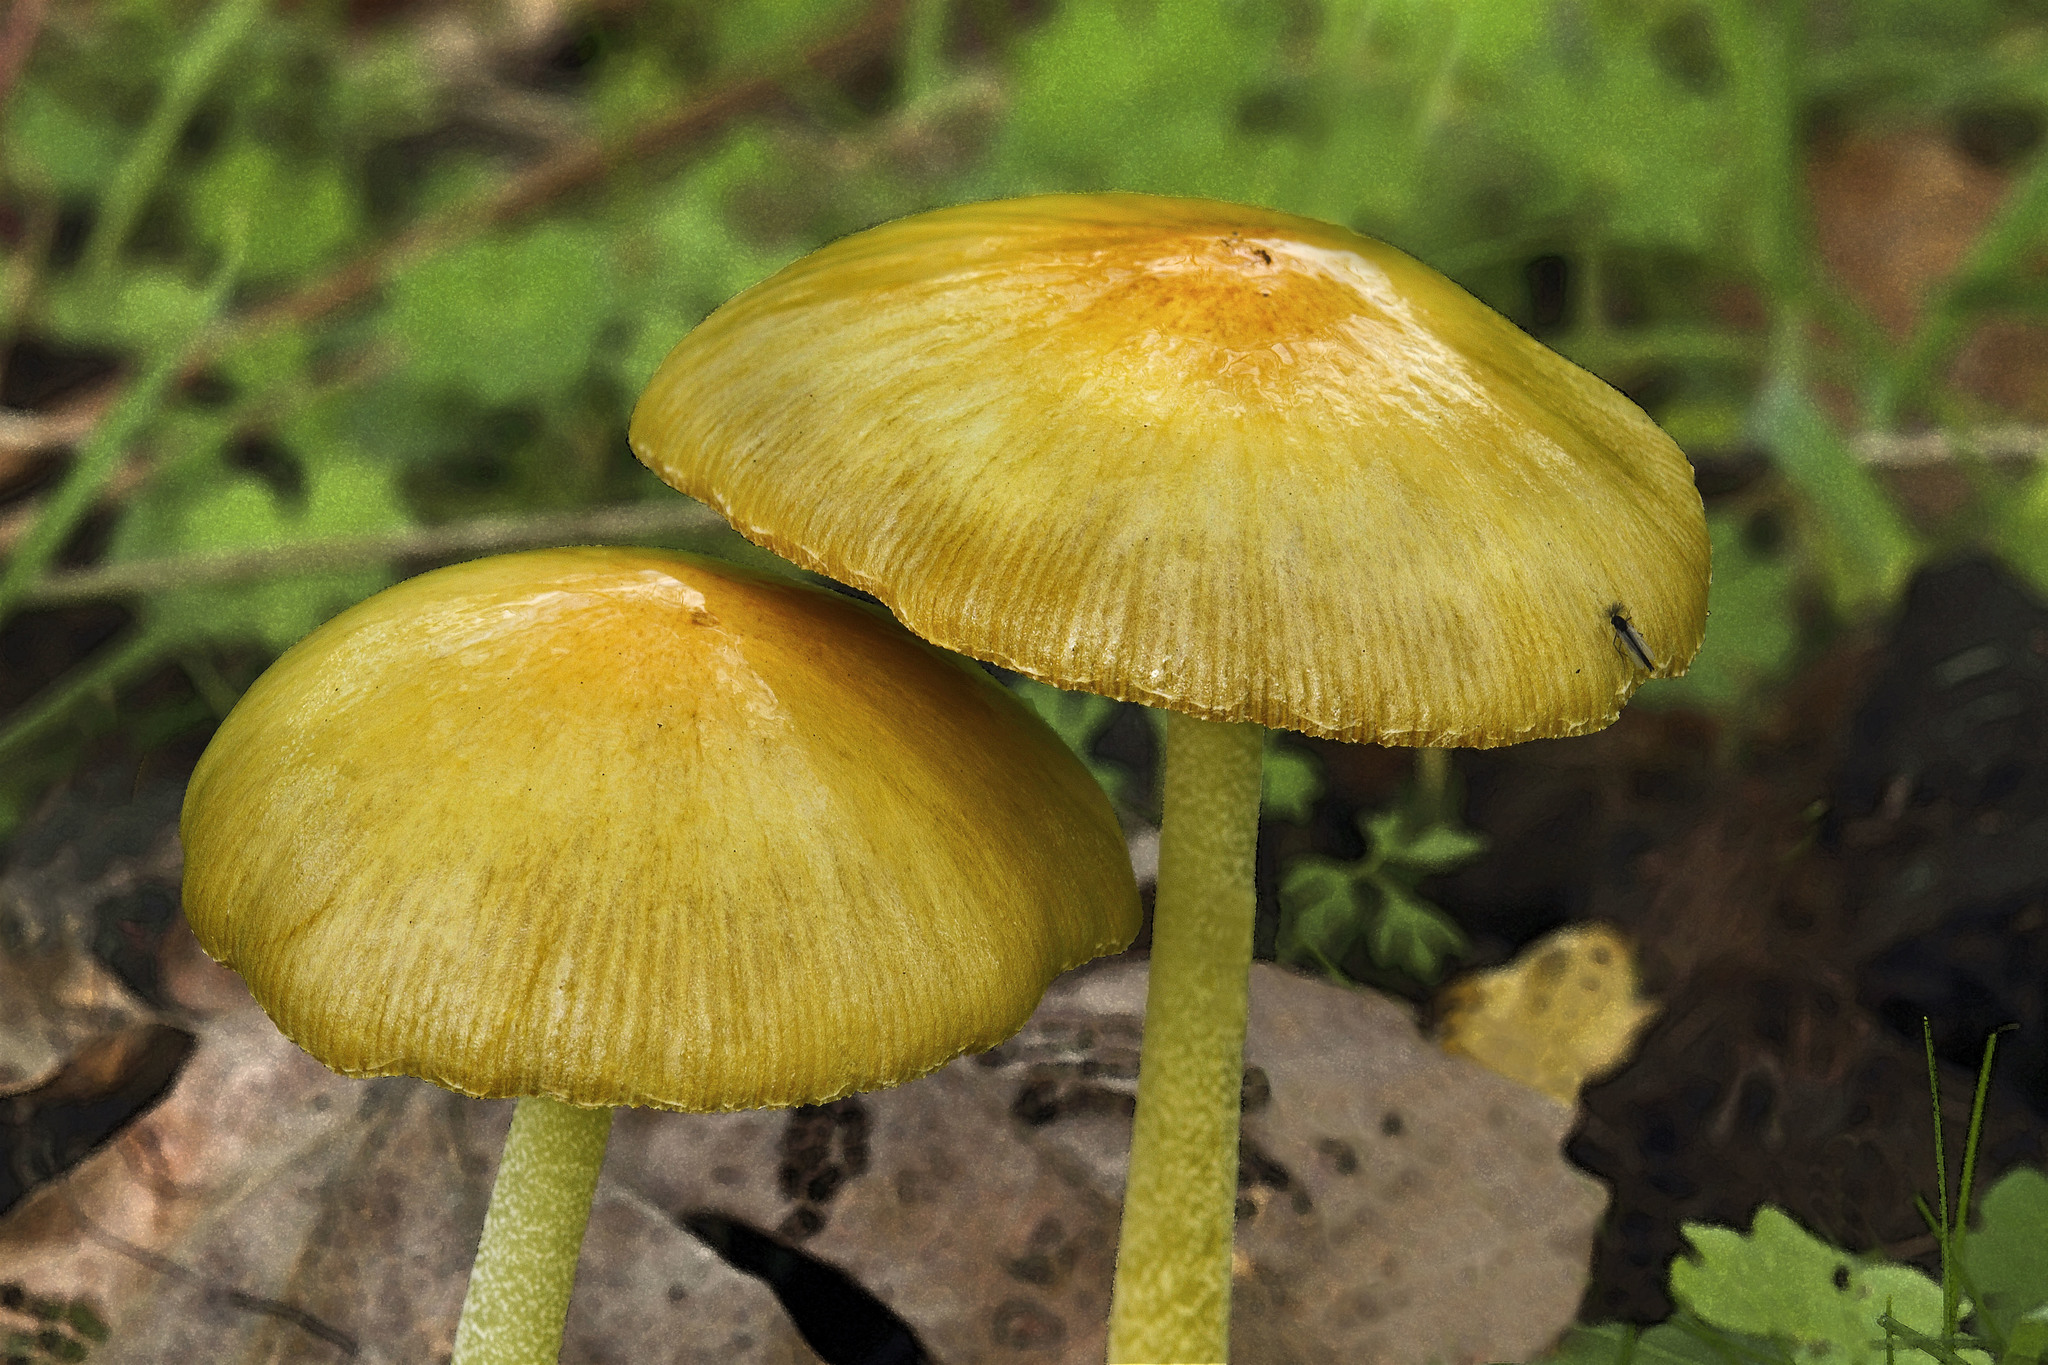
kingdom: Fungi
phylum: Basidiomycota
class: Agaricomycetes
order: Agaricales
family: Bolbitiaceae
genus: Bolbitius
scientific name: Bolbitius titubans
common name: Yellow fieldcap
